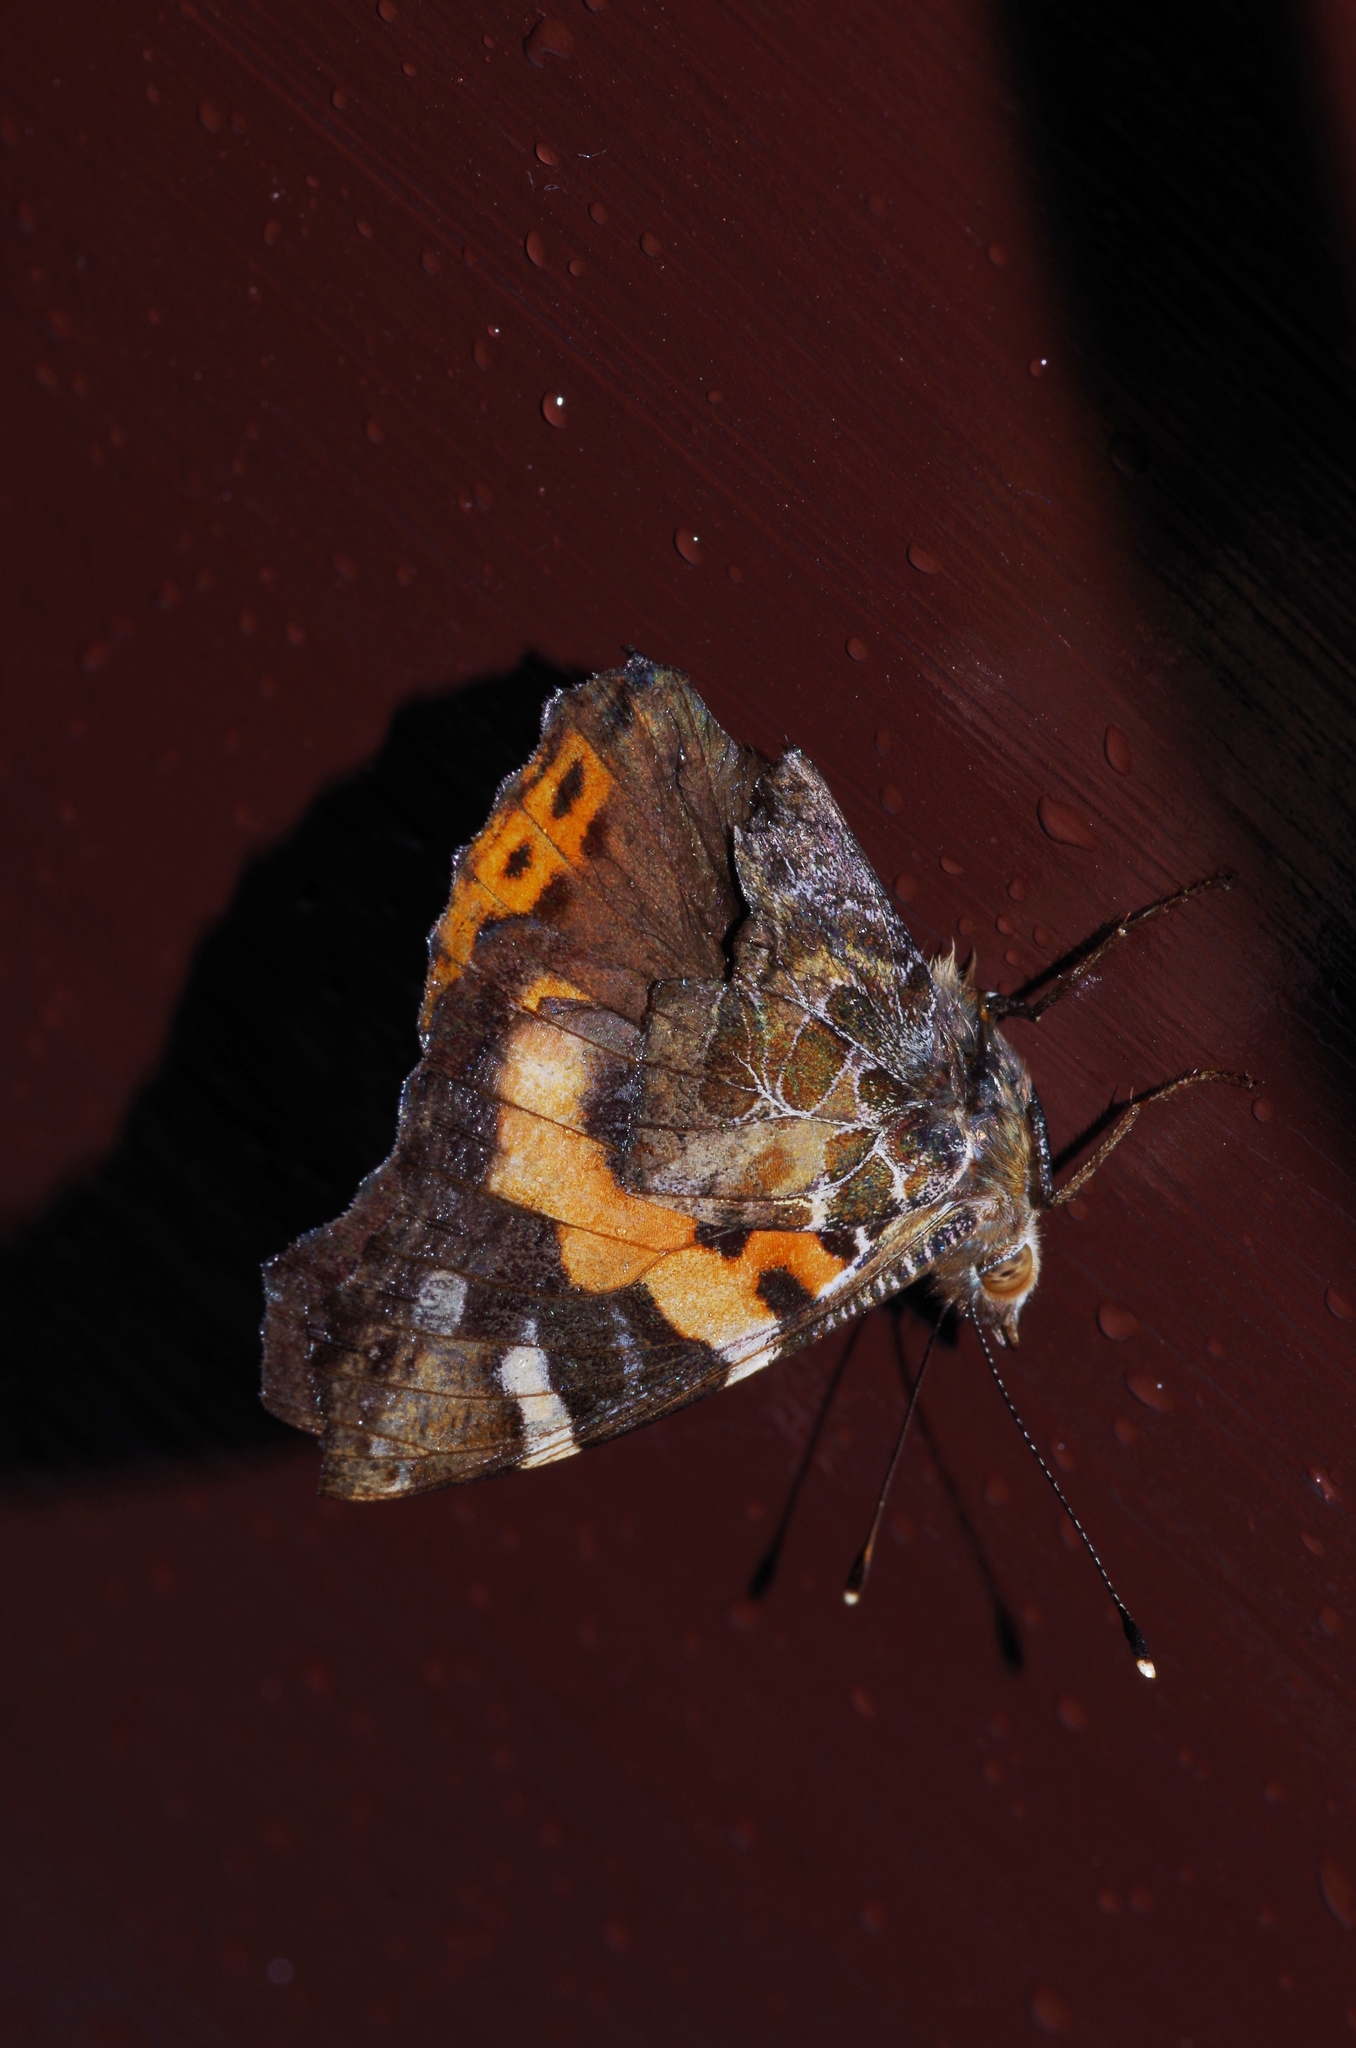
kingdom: Animalia
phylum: Arthropoda
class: Insecta
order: Lepidoptera
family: Nymphalidae
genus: Vanessa
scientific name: Vanessa indica
